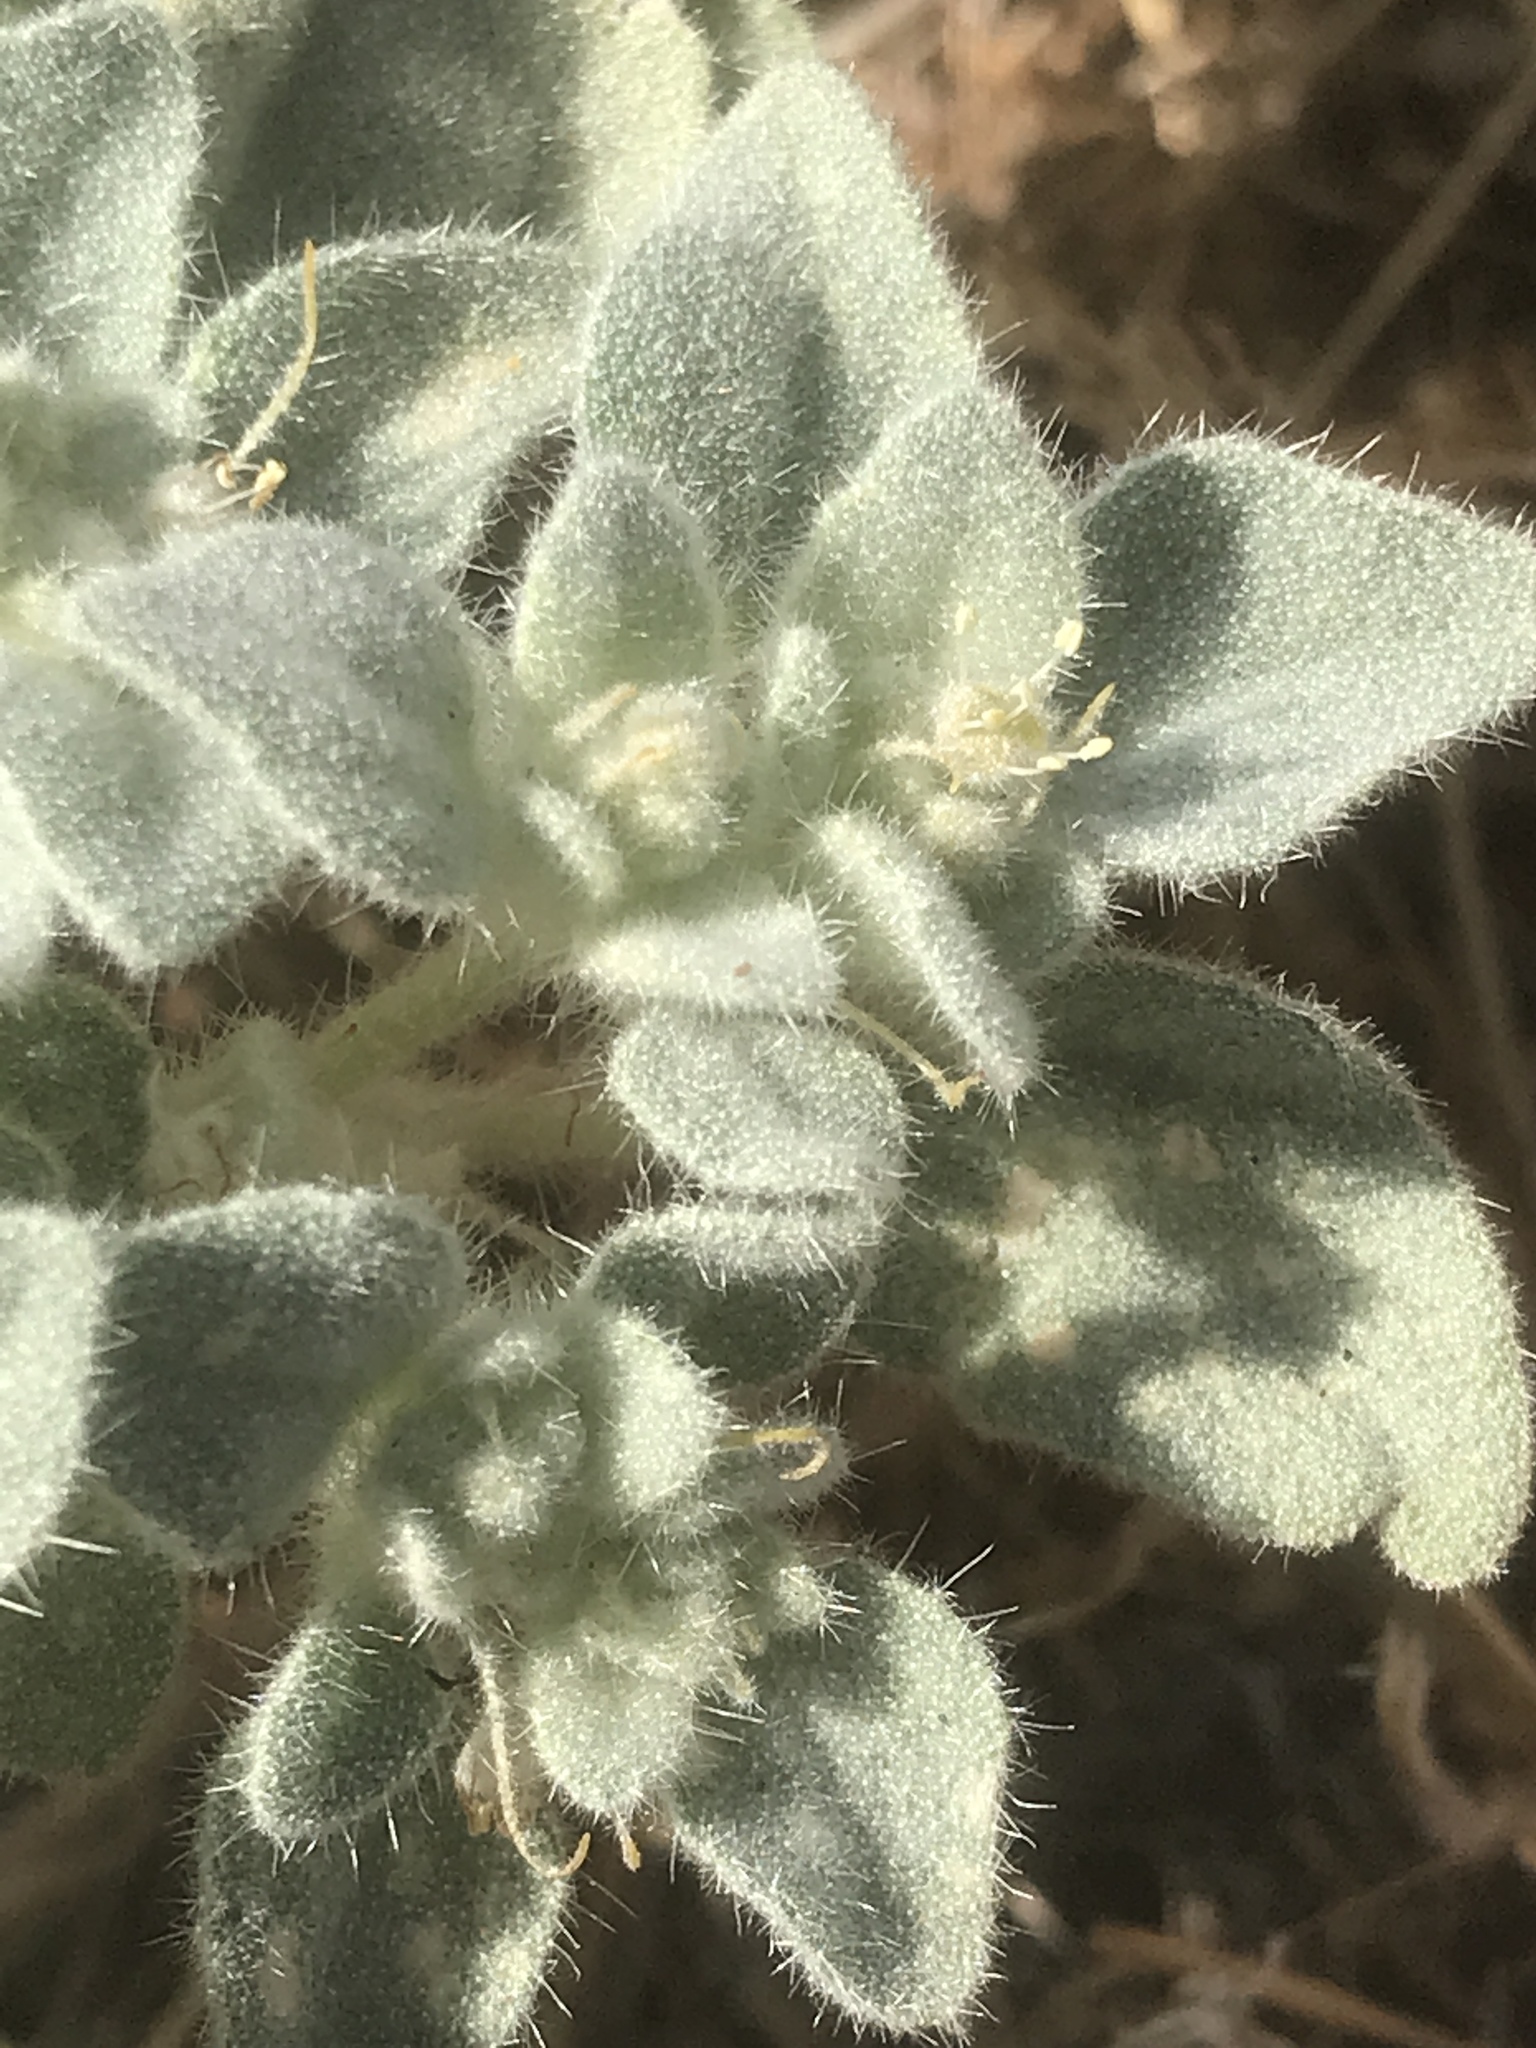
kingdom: Plantae
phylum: Tracheophyta
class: Magnoliopsida
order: Malpighiales
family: Euphorbiaceae
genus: Croton
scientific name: Croton setiger
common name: Dove weed
